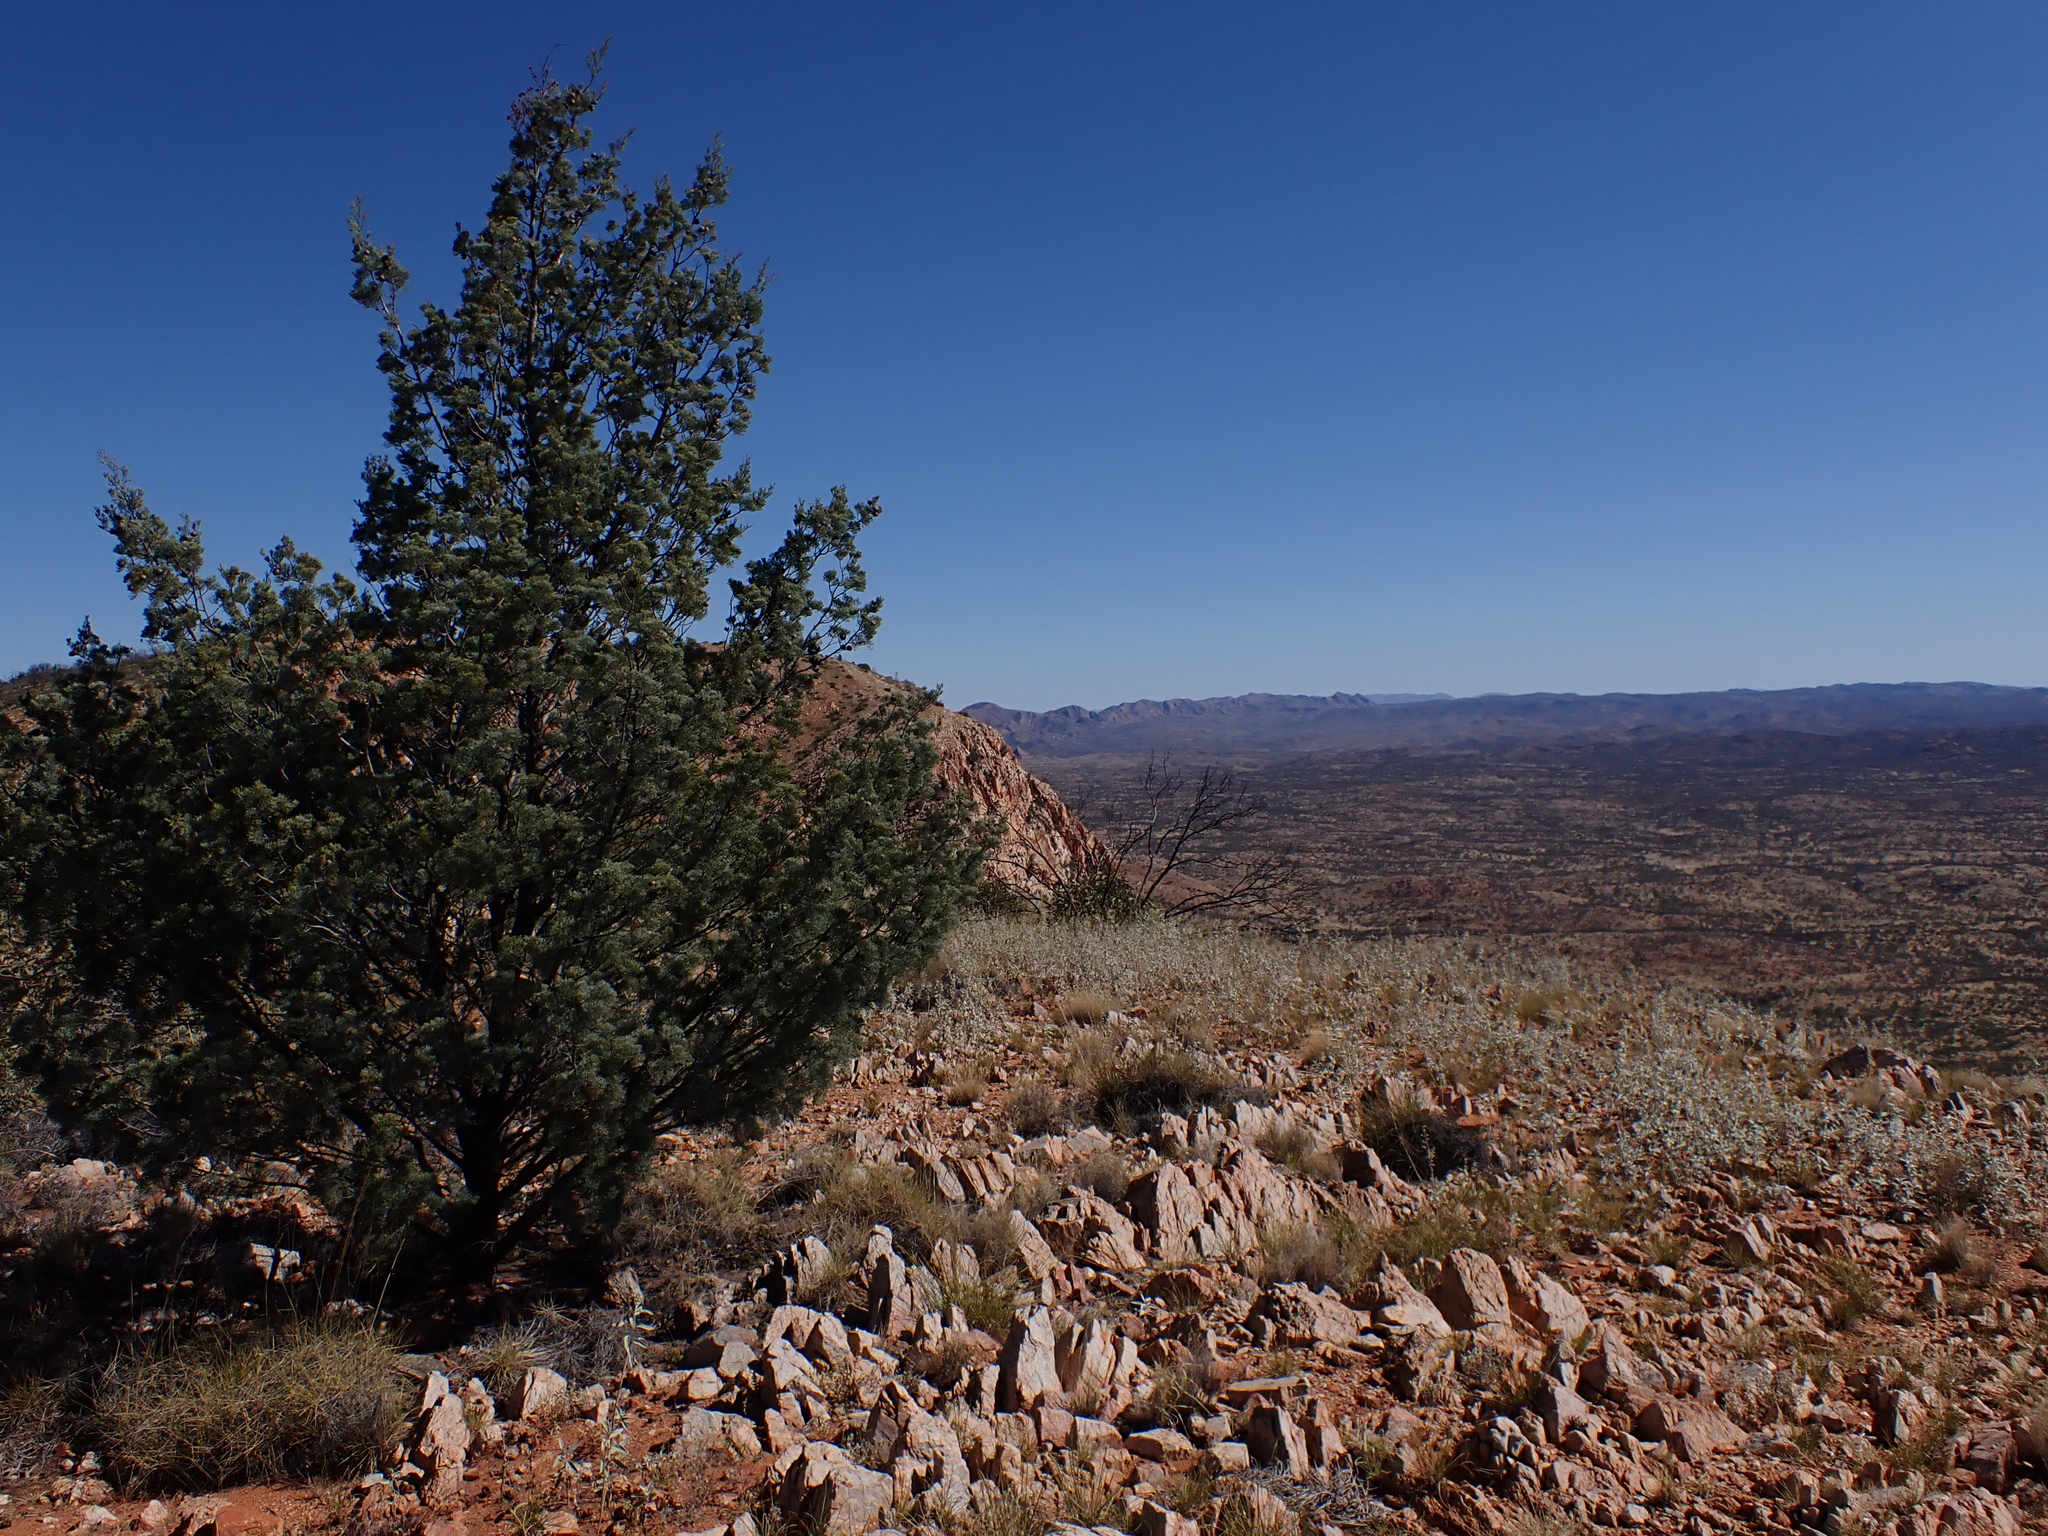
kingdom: Plantae
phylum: Tracheophyta
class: Pinopsida
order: Pinales
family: Cupressaceae
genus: Callitris
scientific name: Callitris columellaris
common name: White cypress-pine
